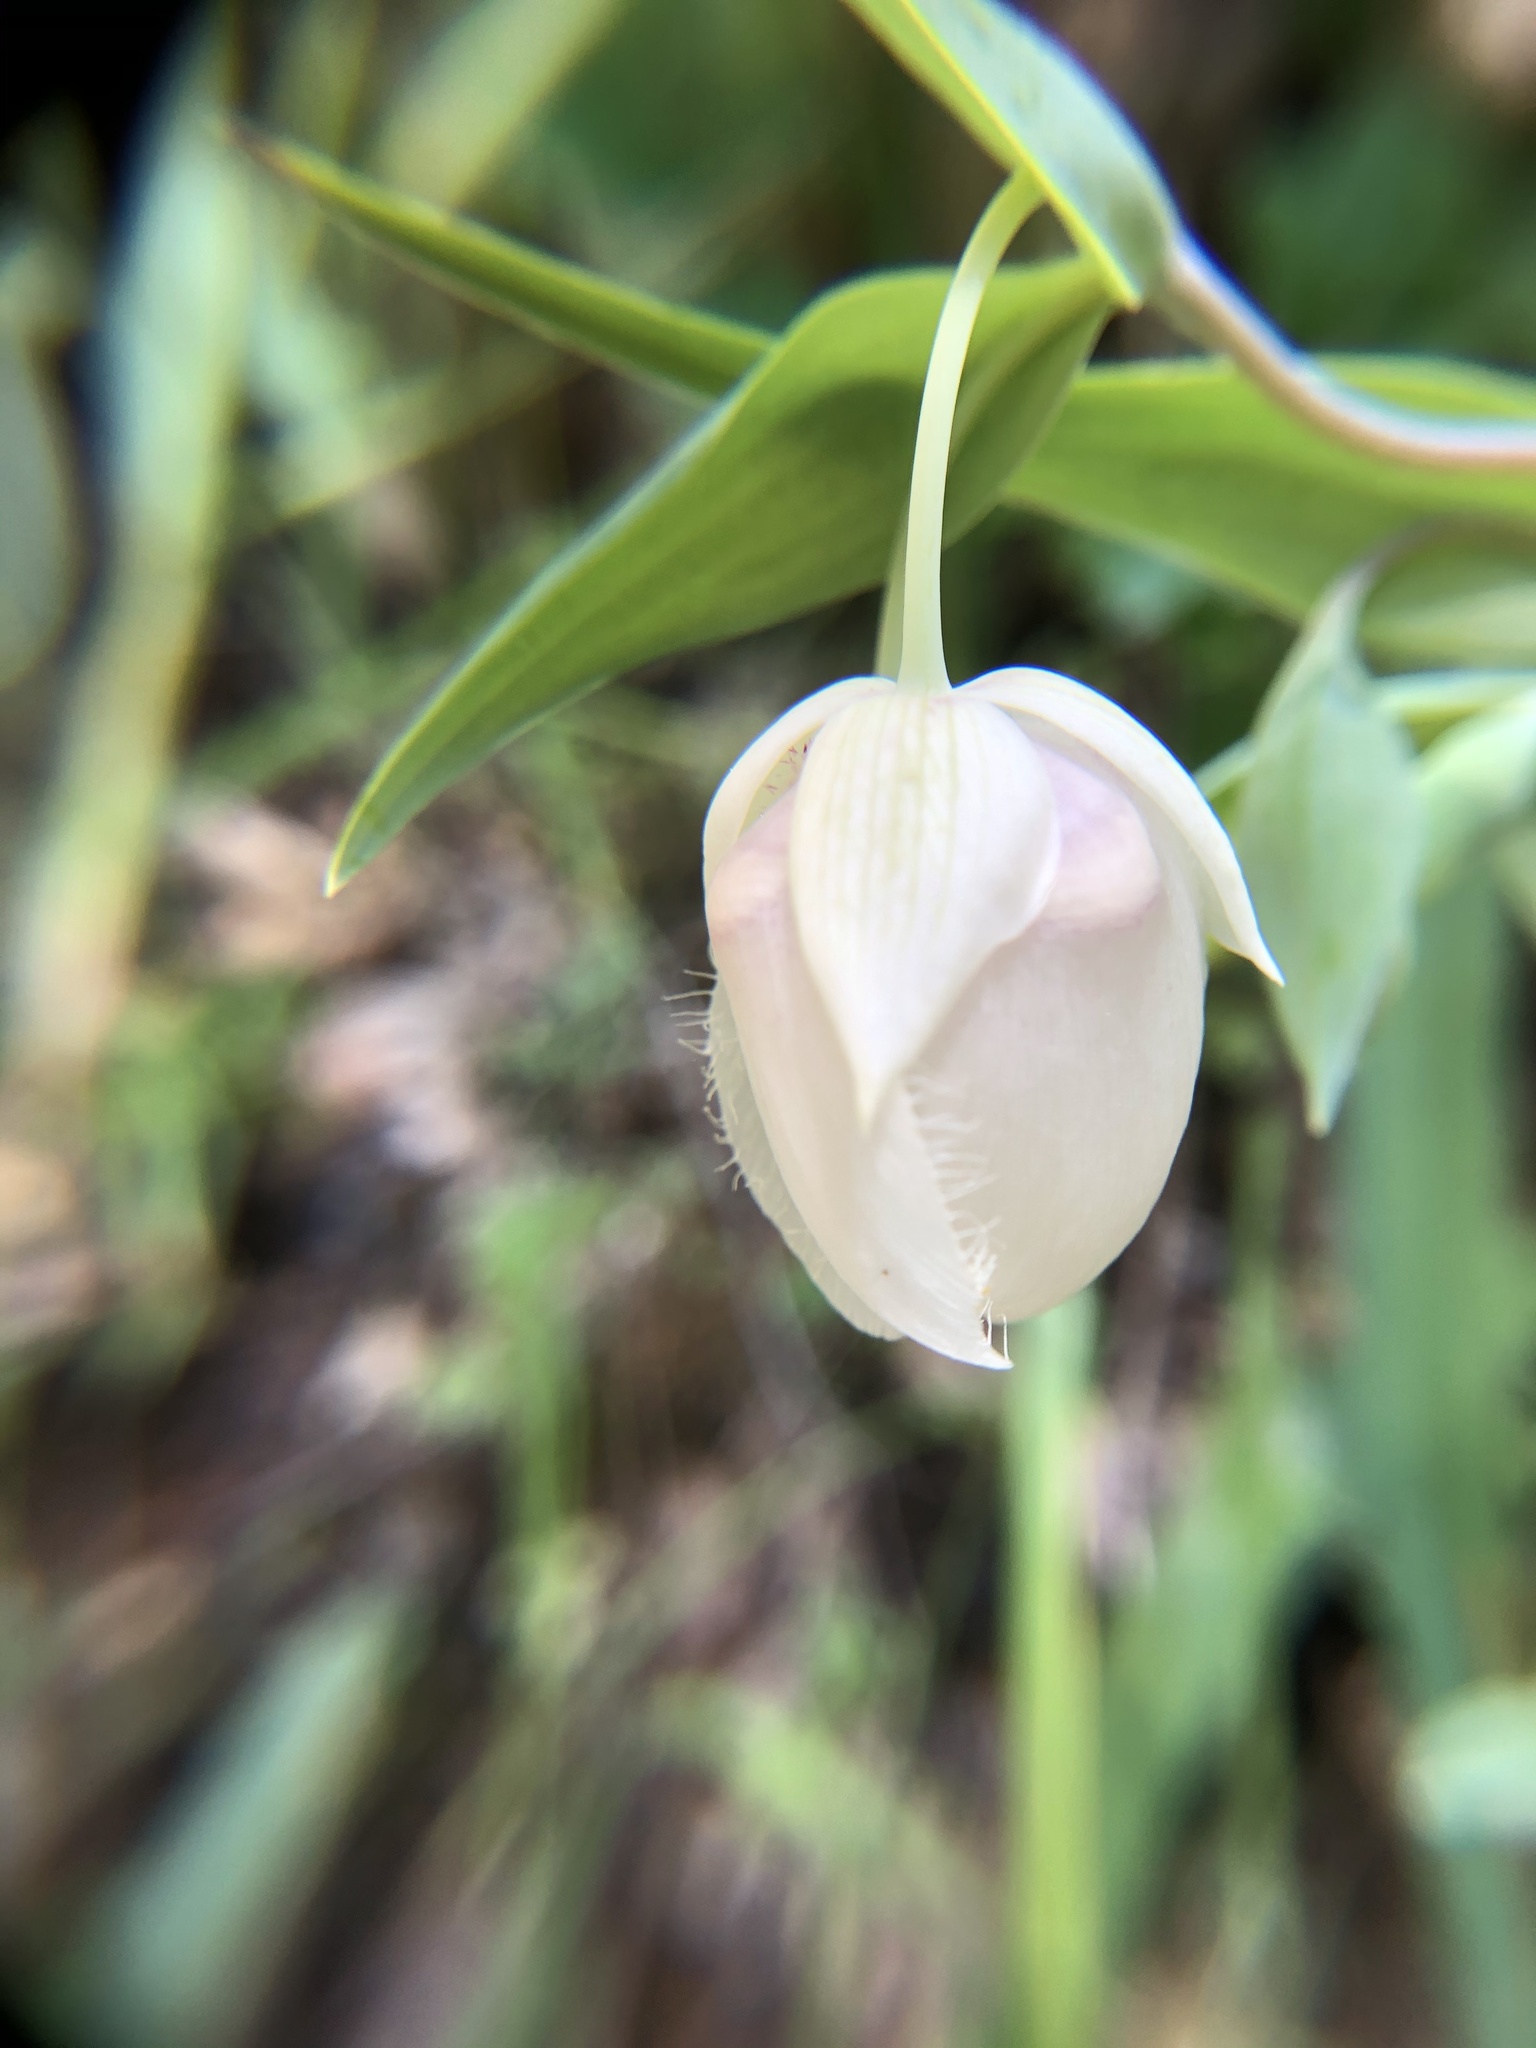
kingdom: Plantae
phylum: Tracheophyta
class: Liliopsida
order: Liliales
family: Liliaceae
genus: Calochortus
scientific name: Calochortus albus
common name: Fairy-lantern
